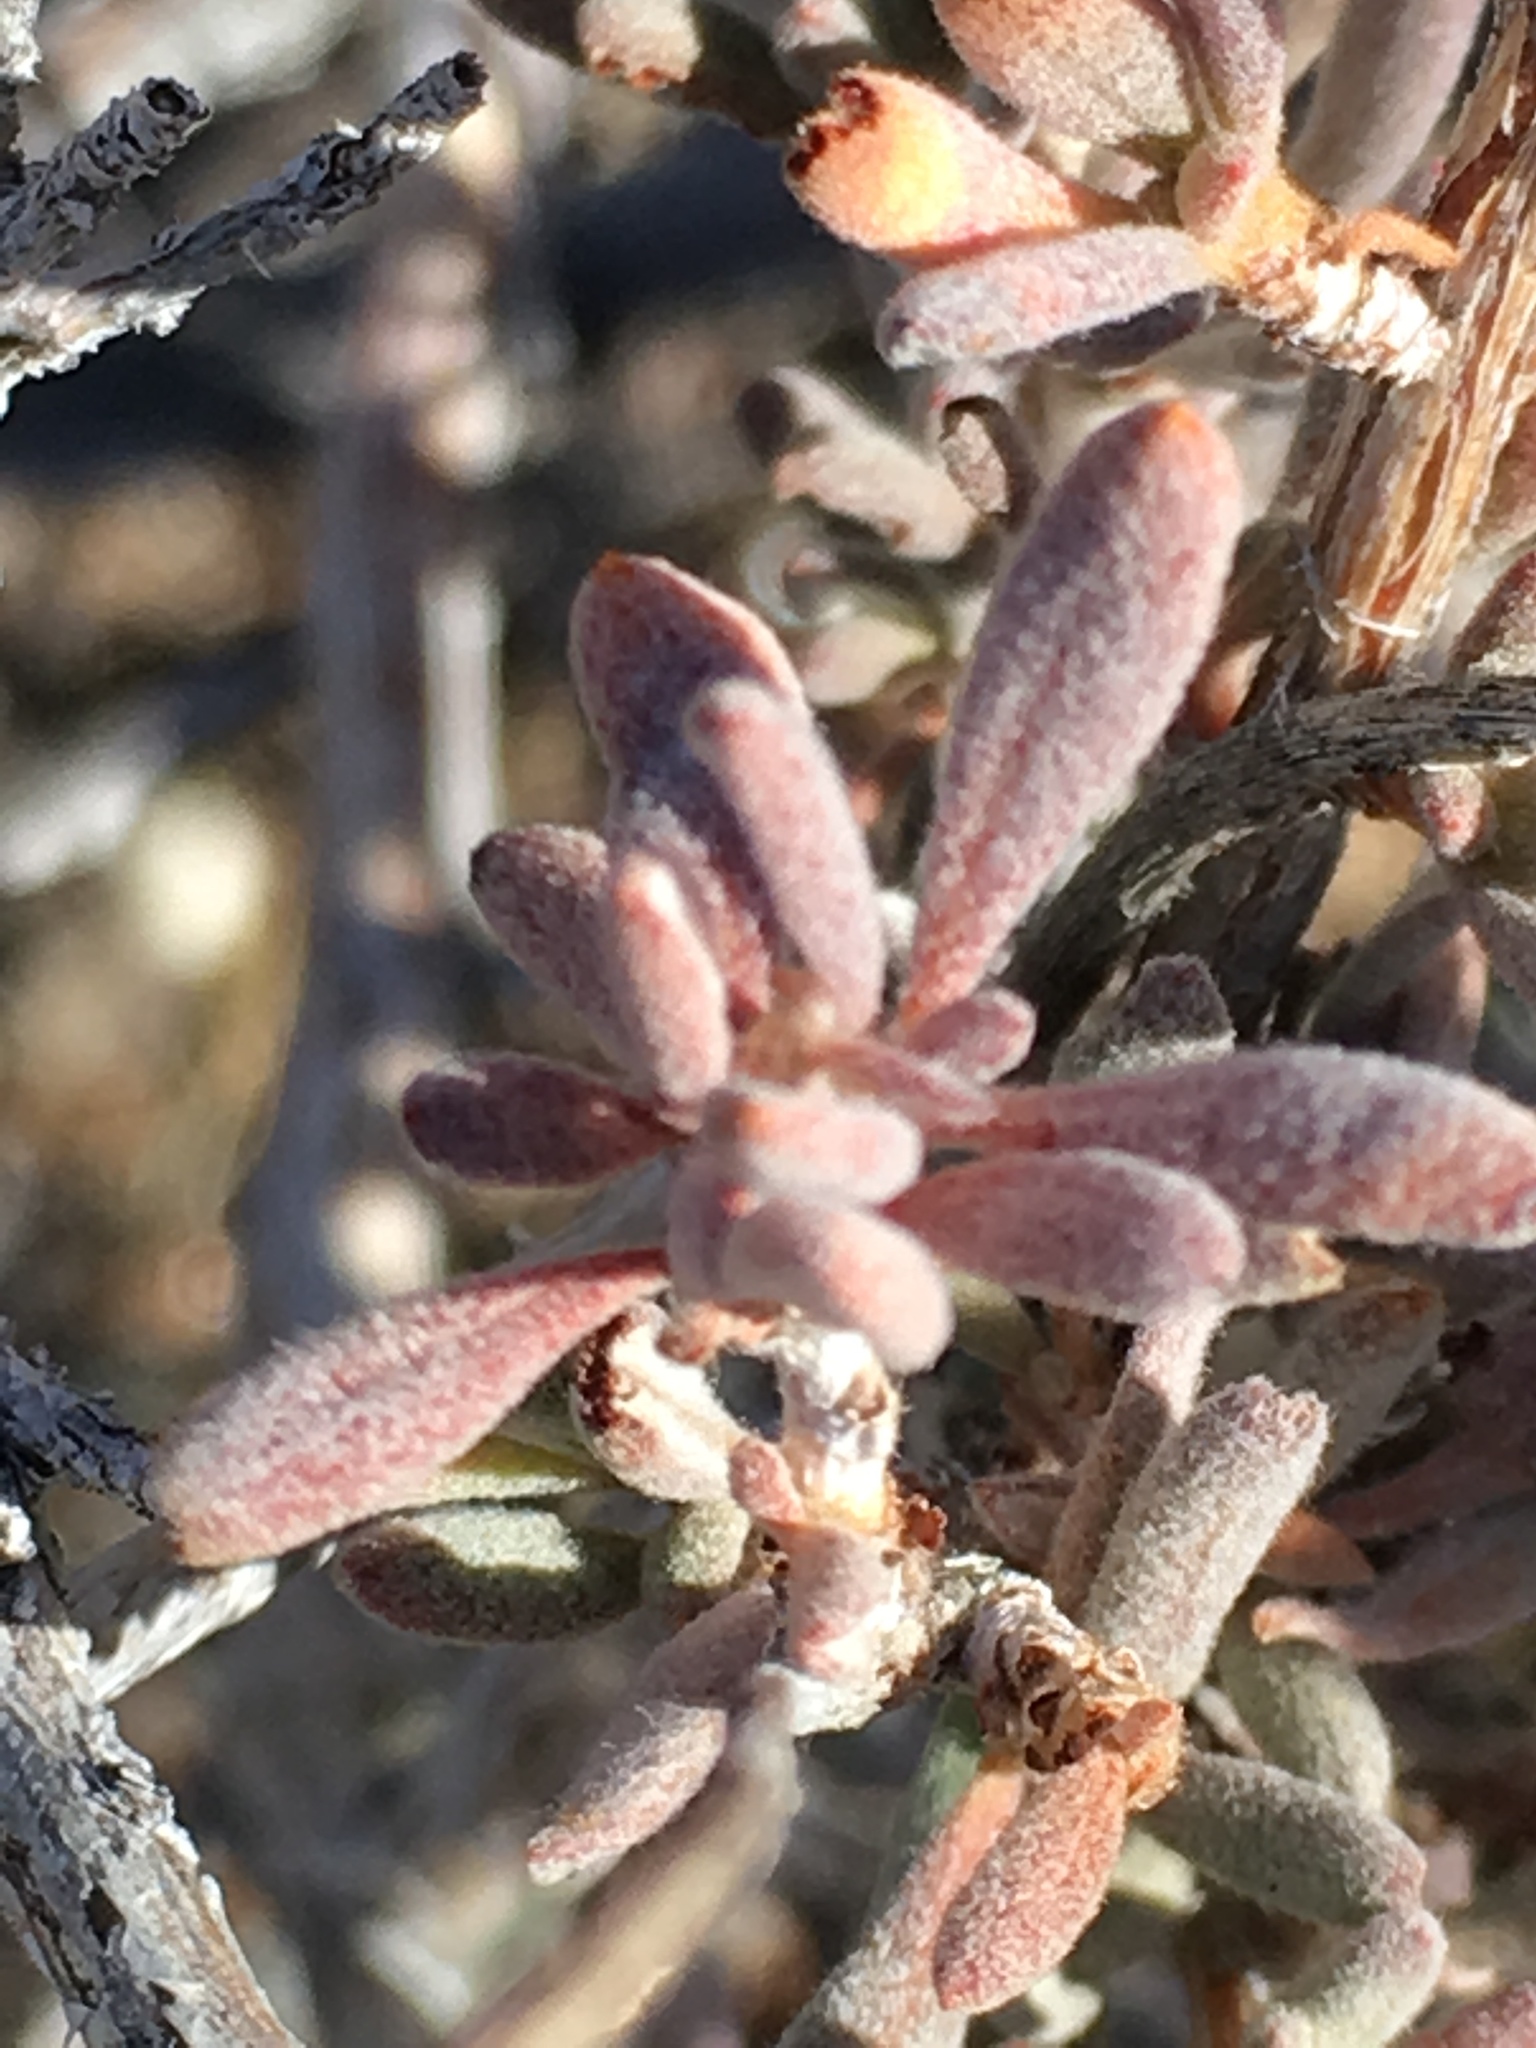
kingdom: Plantae
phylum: Tracheophyta
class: Magnoliopsida
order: Caryophyllales
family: Polygonaceae
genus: Eriogonum
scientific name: Eriogonum fasciculatum
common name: California wild buckwheat
